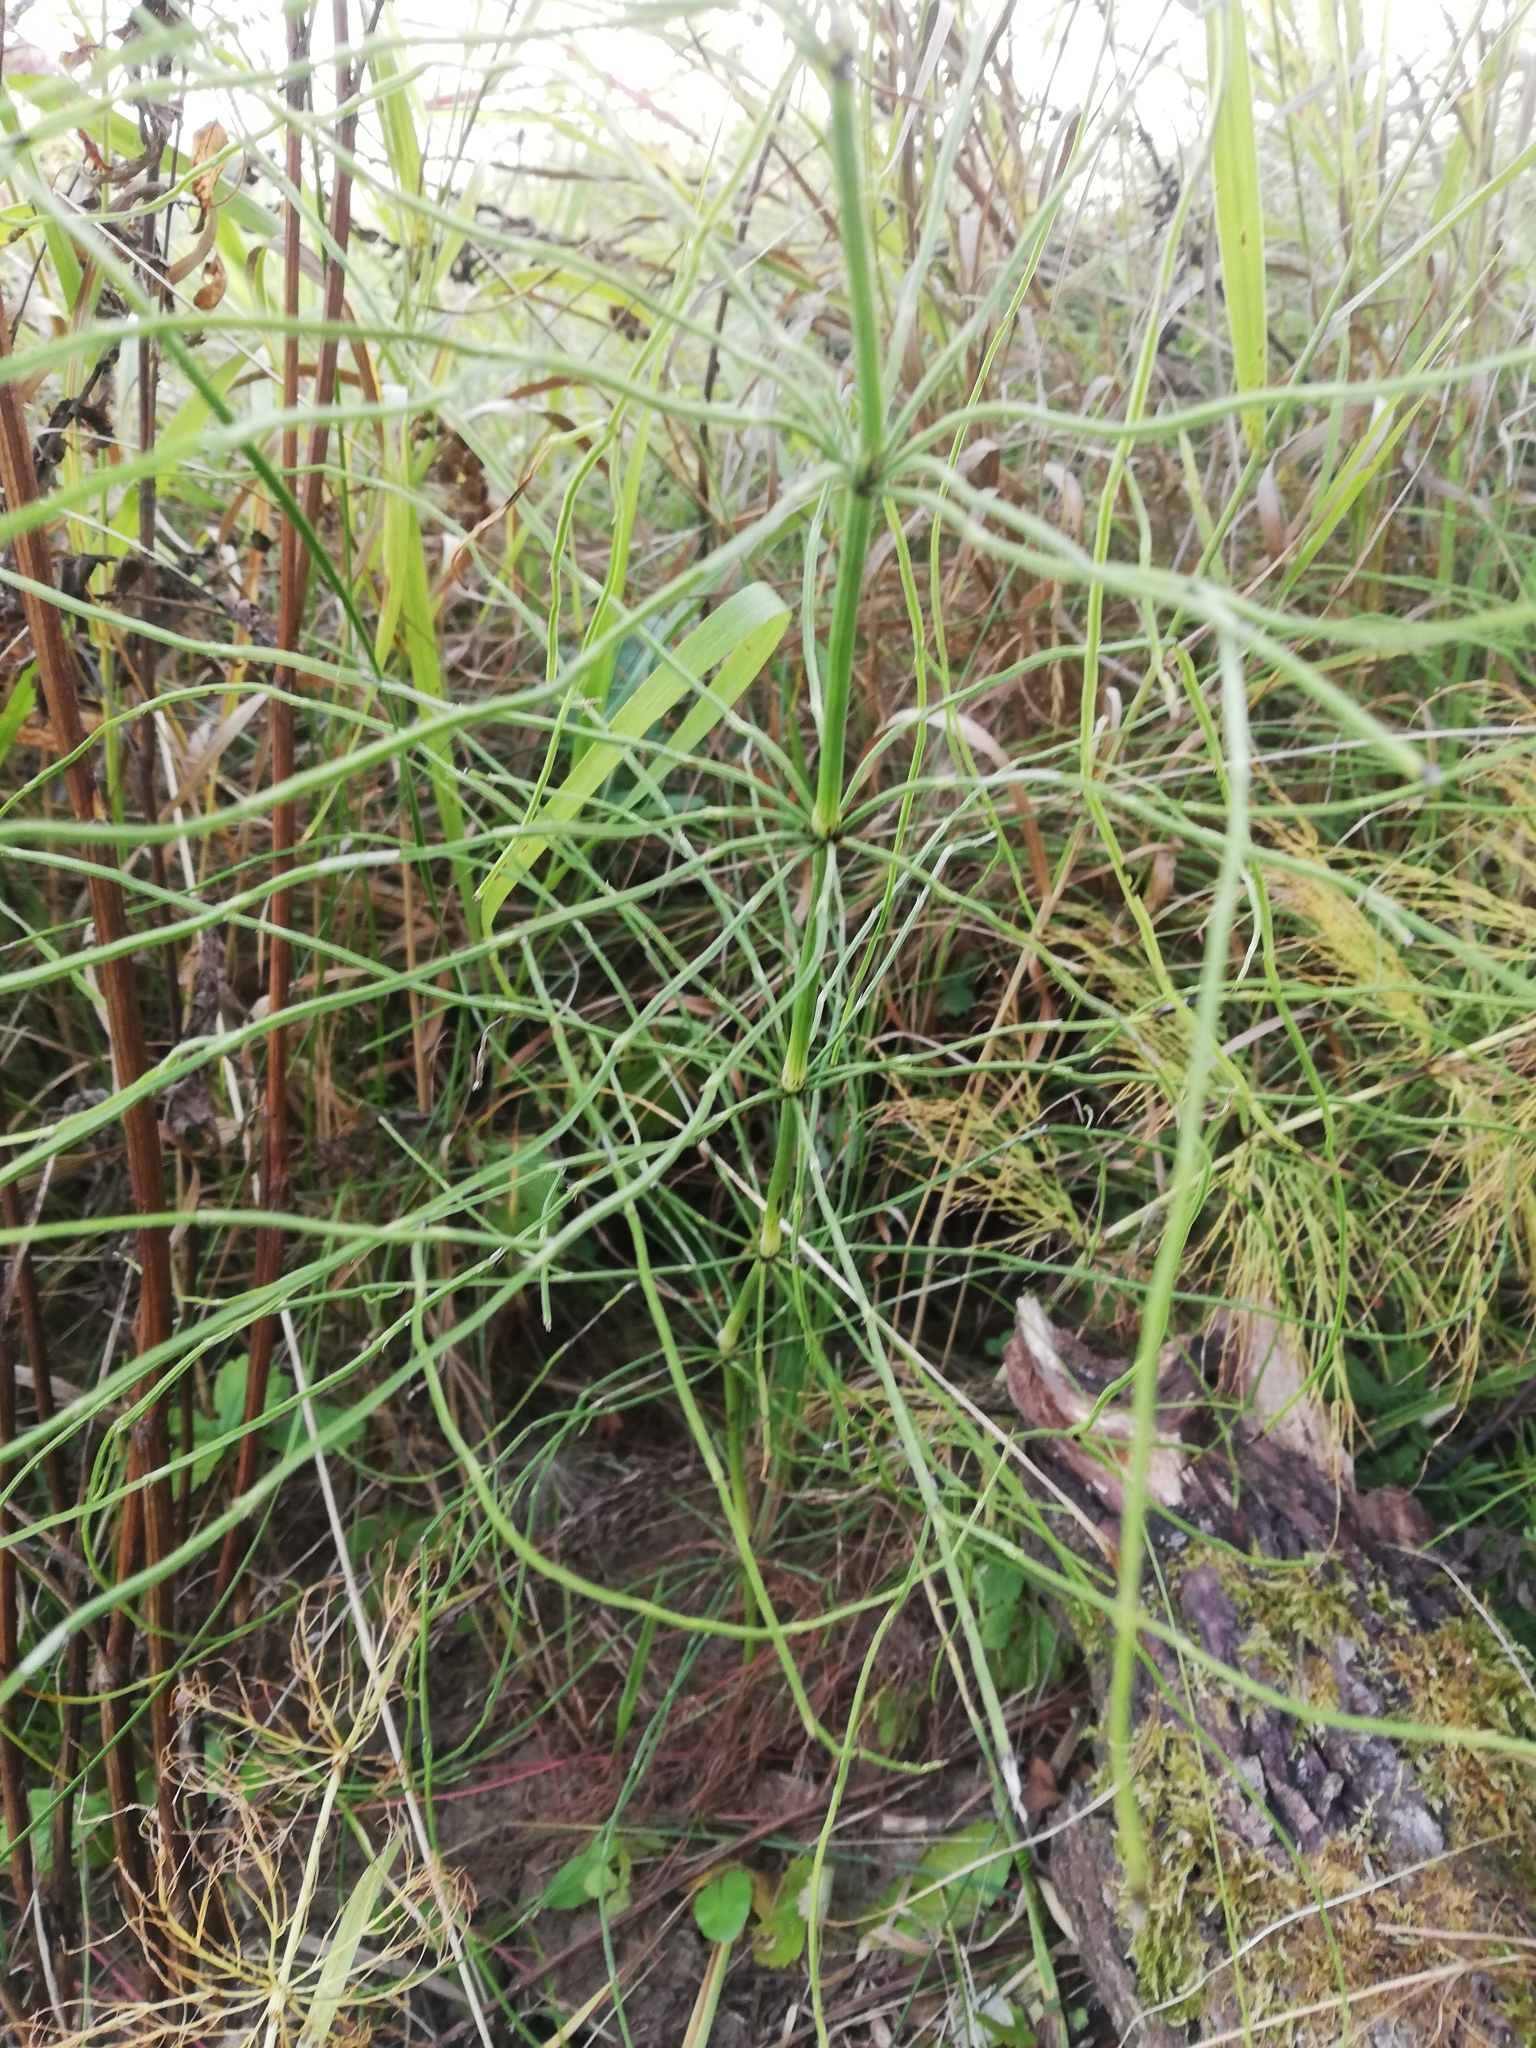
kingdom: Plantae
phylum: Tracheophyta
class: Polypodiopsida
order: Equisetales
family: Equisetaceae
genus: Equisetum
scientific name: Equisetum arvense
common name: Field horsetail
